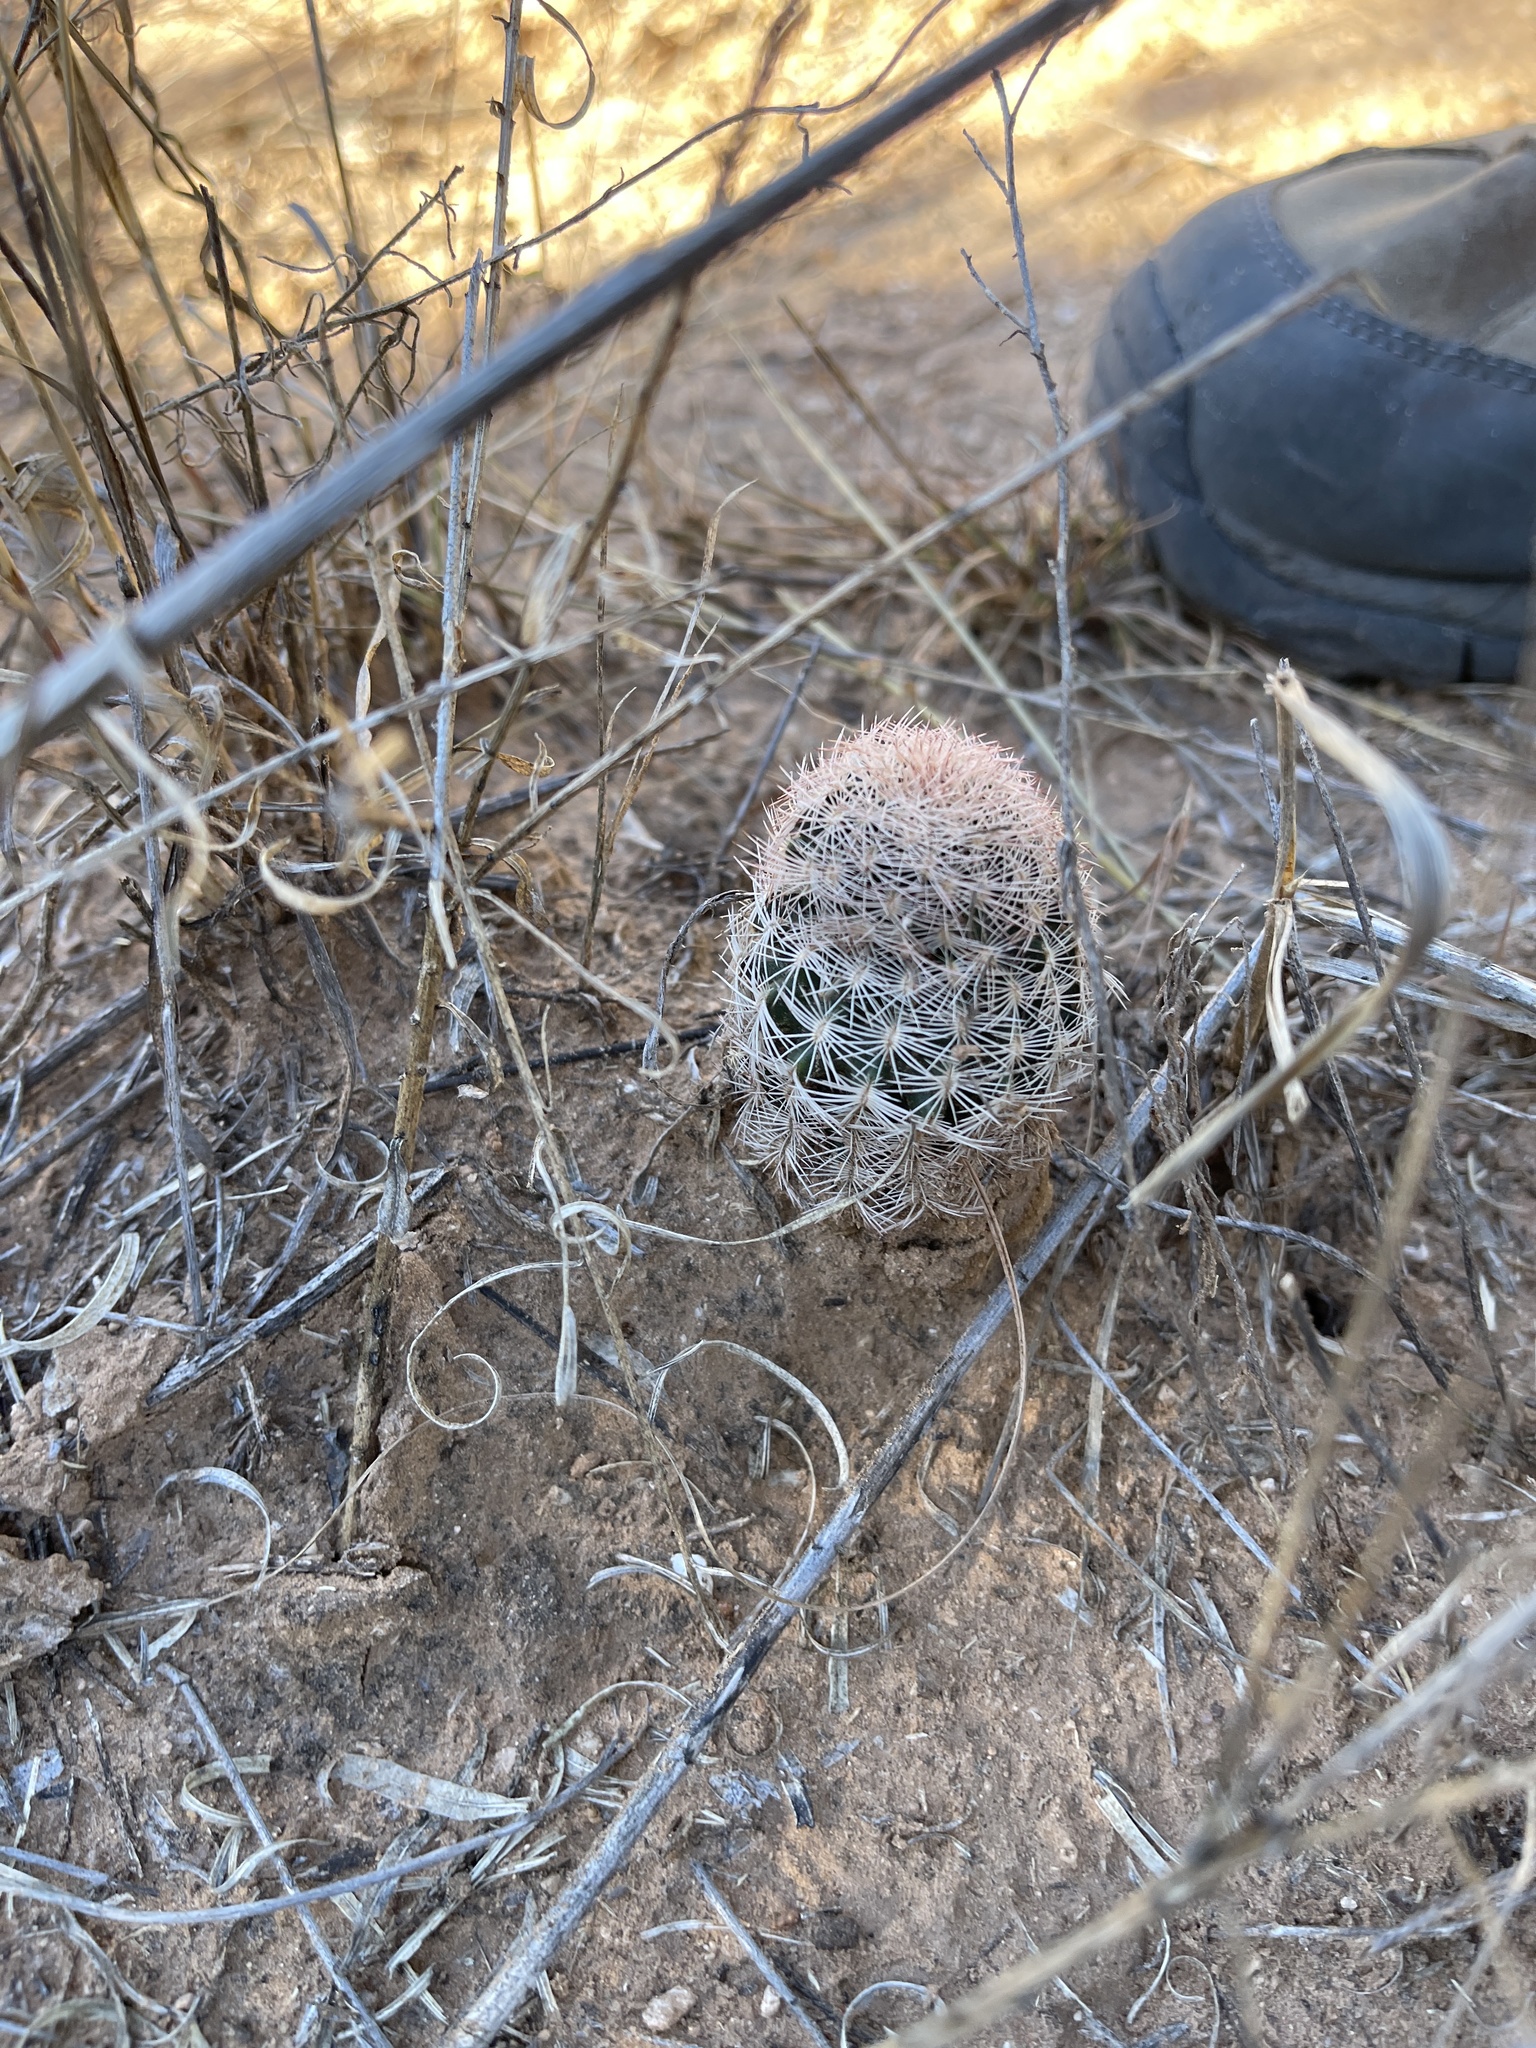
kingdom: Plantae
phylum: Tracheophyta
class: Magnoliopsida
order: Caryophyllales
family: Cactaceae
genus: Echinocereus
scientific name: Echinocereus reichenbachii
